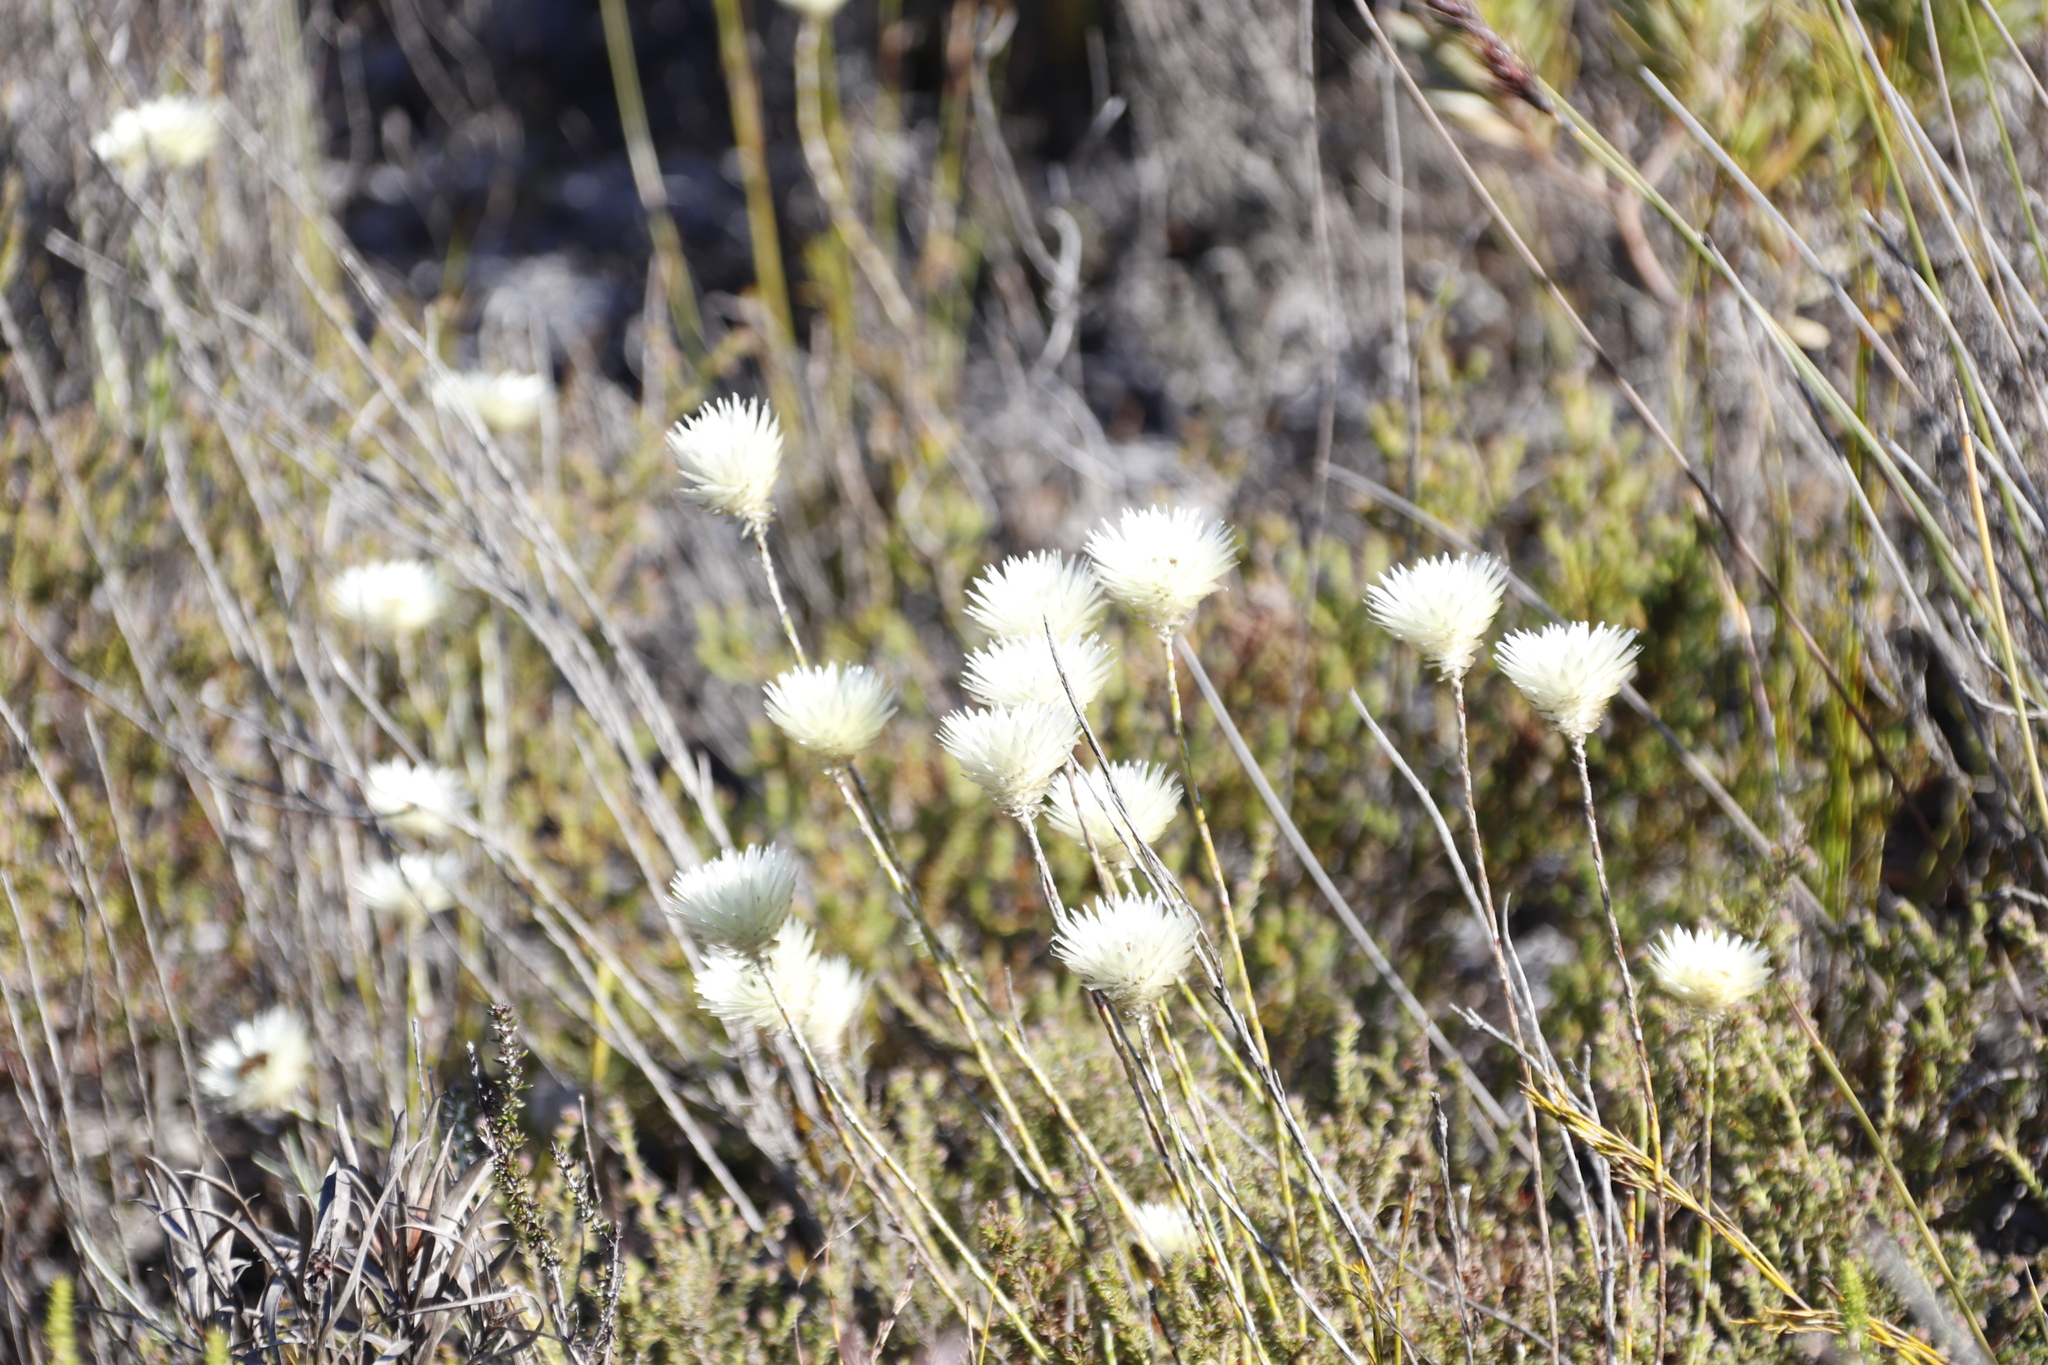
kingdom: Plantae
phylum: Tracheophyta
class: Magnoliopsida
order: Asterales
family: Asteraceae
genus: Edmondia
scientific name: Edmondia sesamoides
